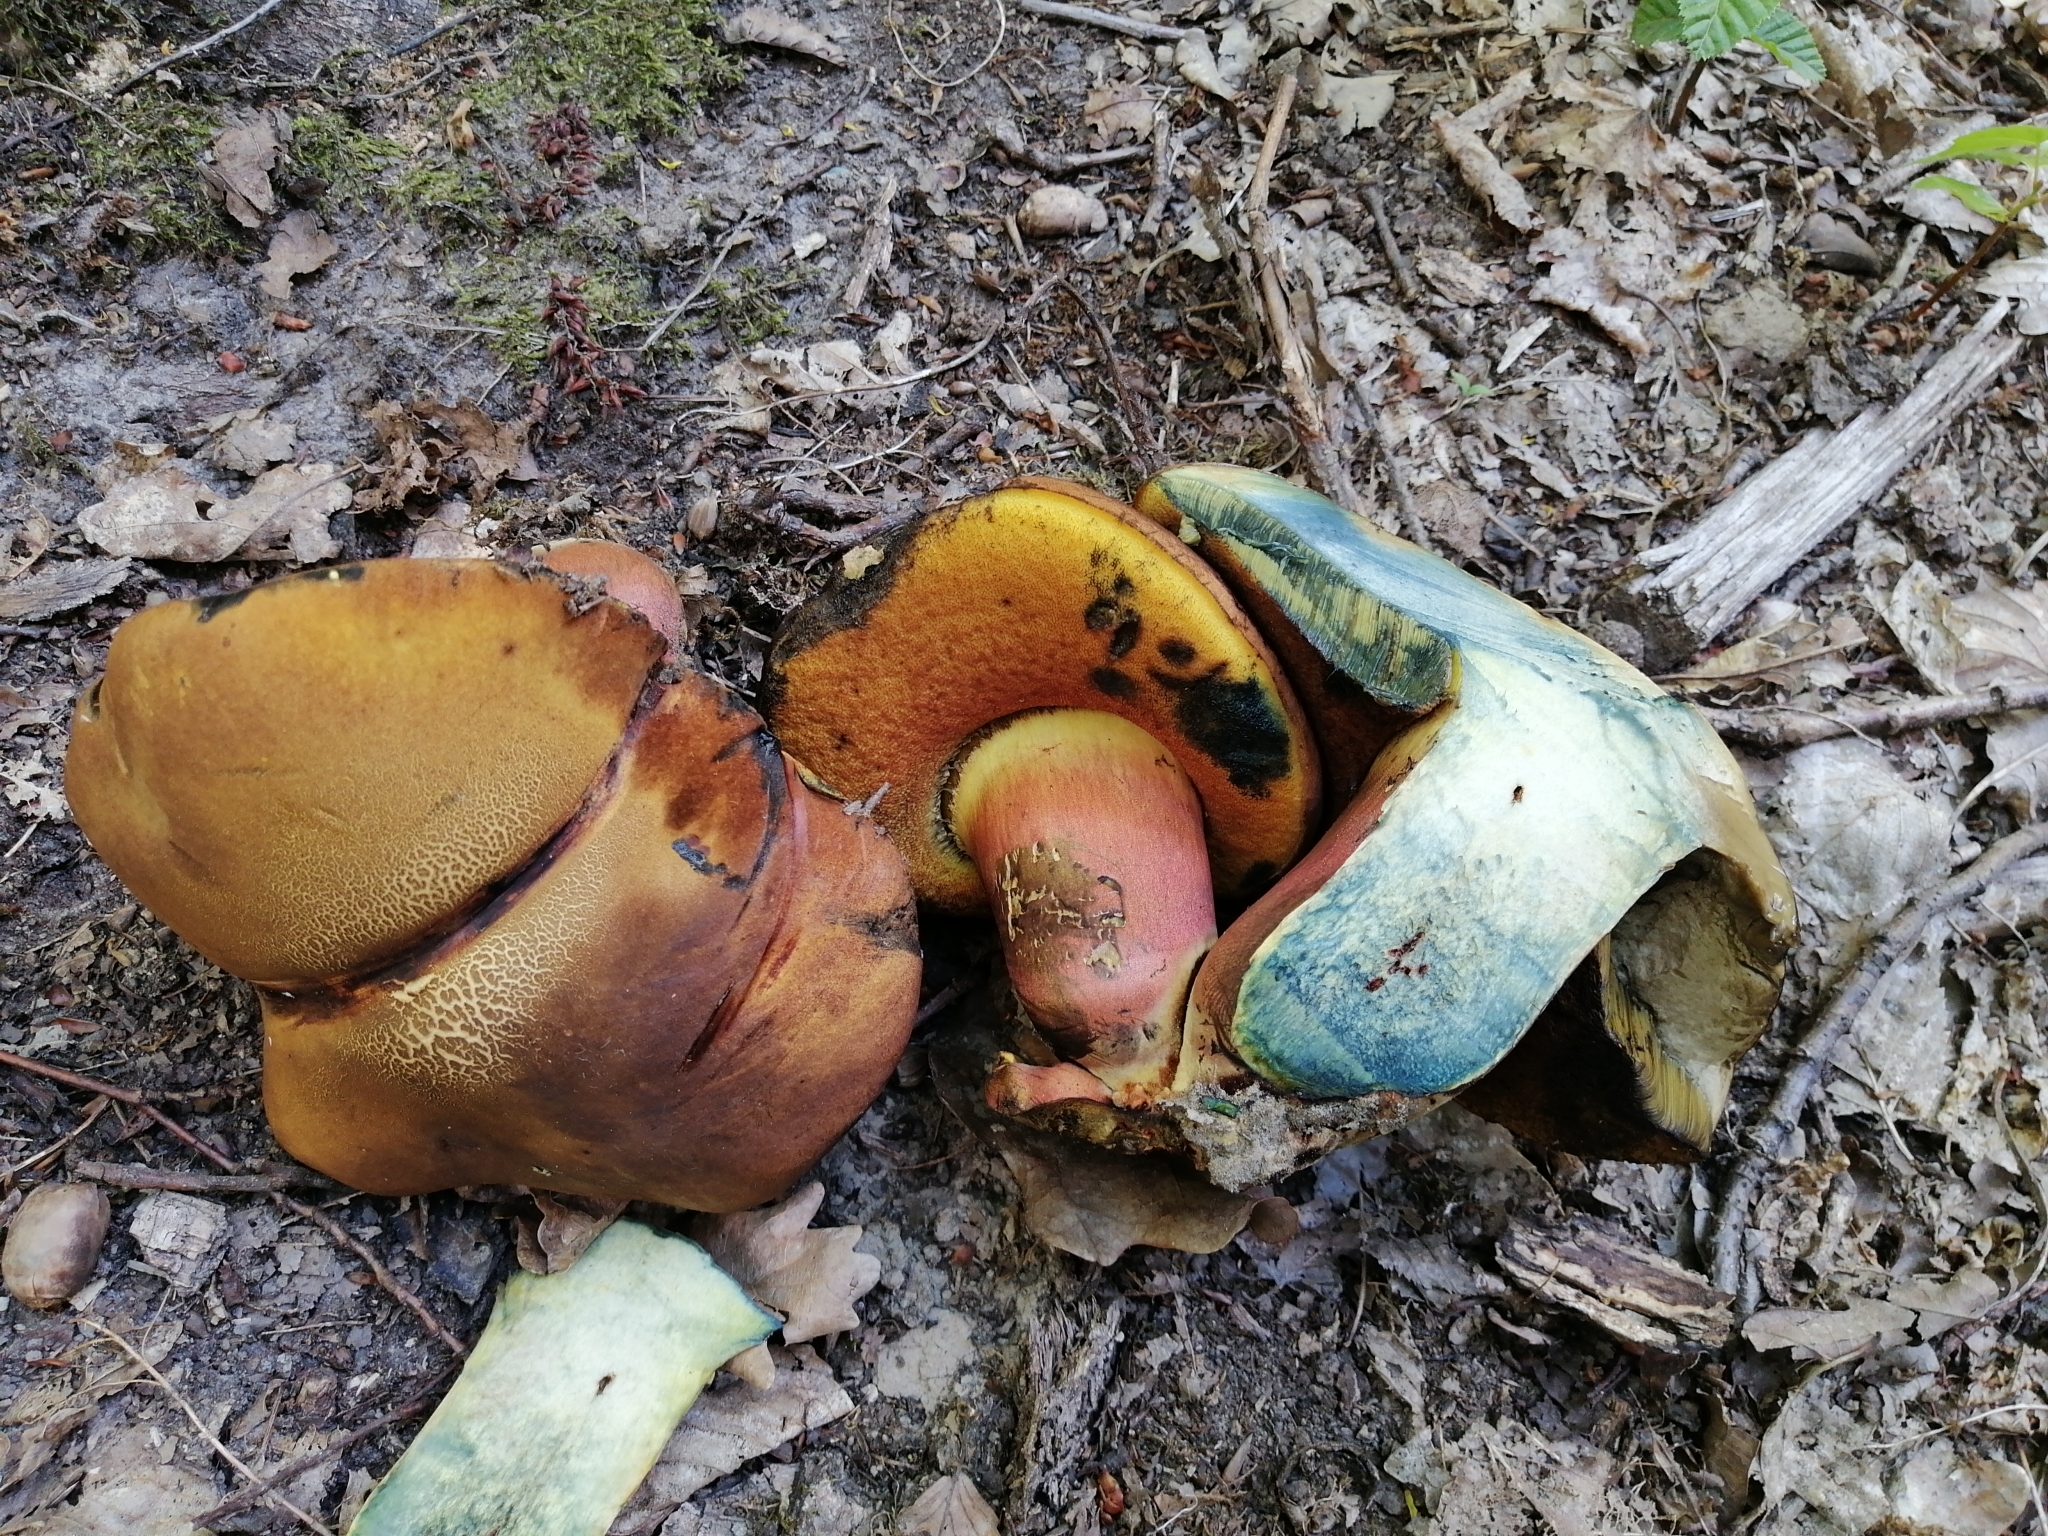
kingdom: Fungi
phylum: Basidiomycota
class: Agaricomycetes
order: Boletales
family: Boletaceae
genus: Neoboletus
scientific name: Neoboletus xanthopus
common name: False yellow bolete
